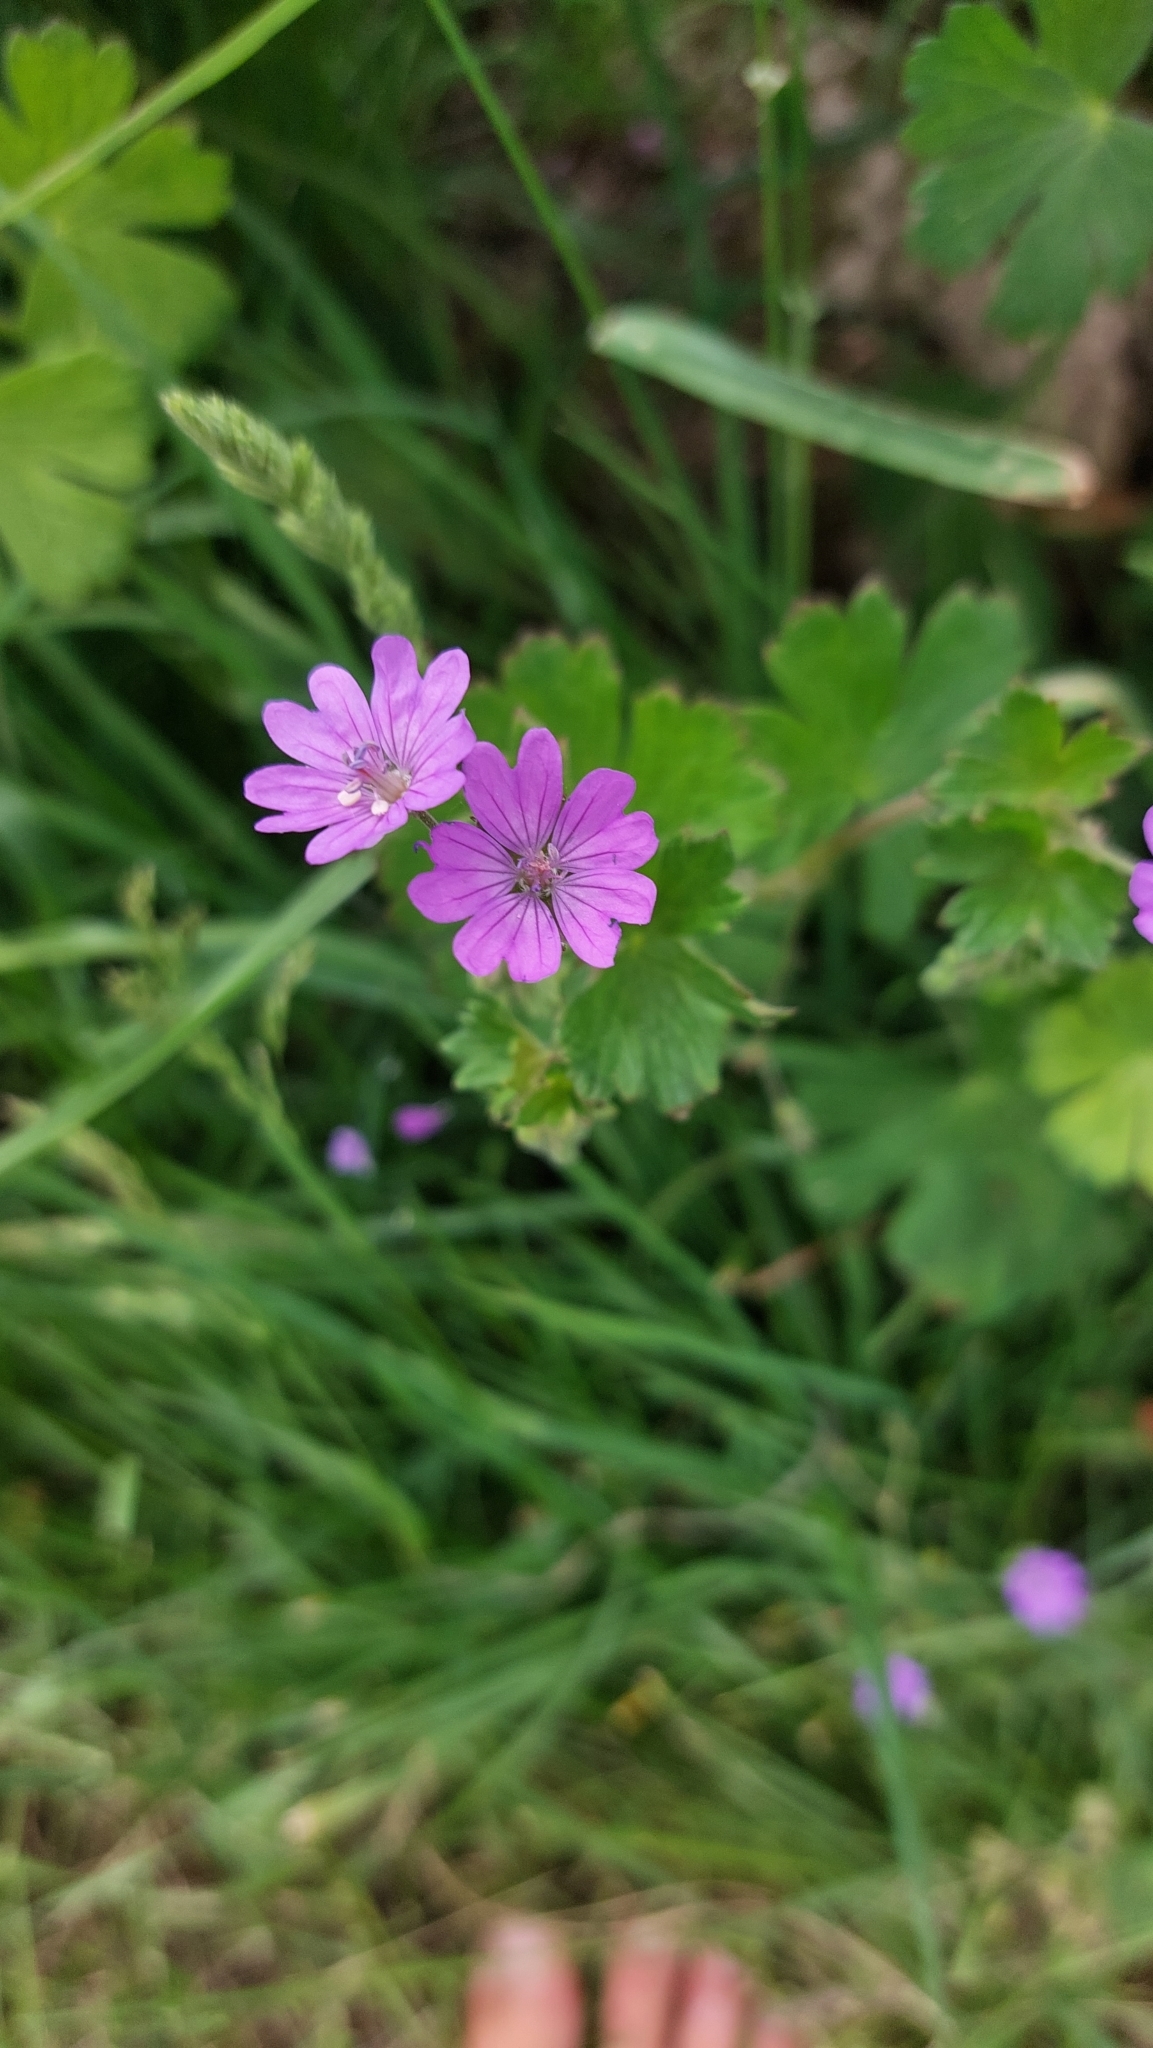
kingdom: Plantae
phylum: Tracheophyta
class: Magnoliopsida
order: Geraniales
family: Geraniaceae
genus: Geranium
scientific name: Geranium pyrenaicum
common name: Hedgerow crane's-bill
